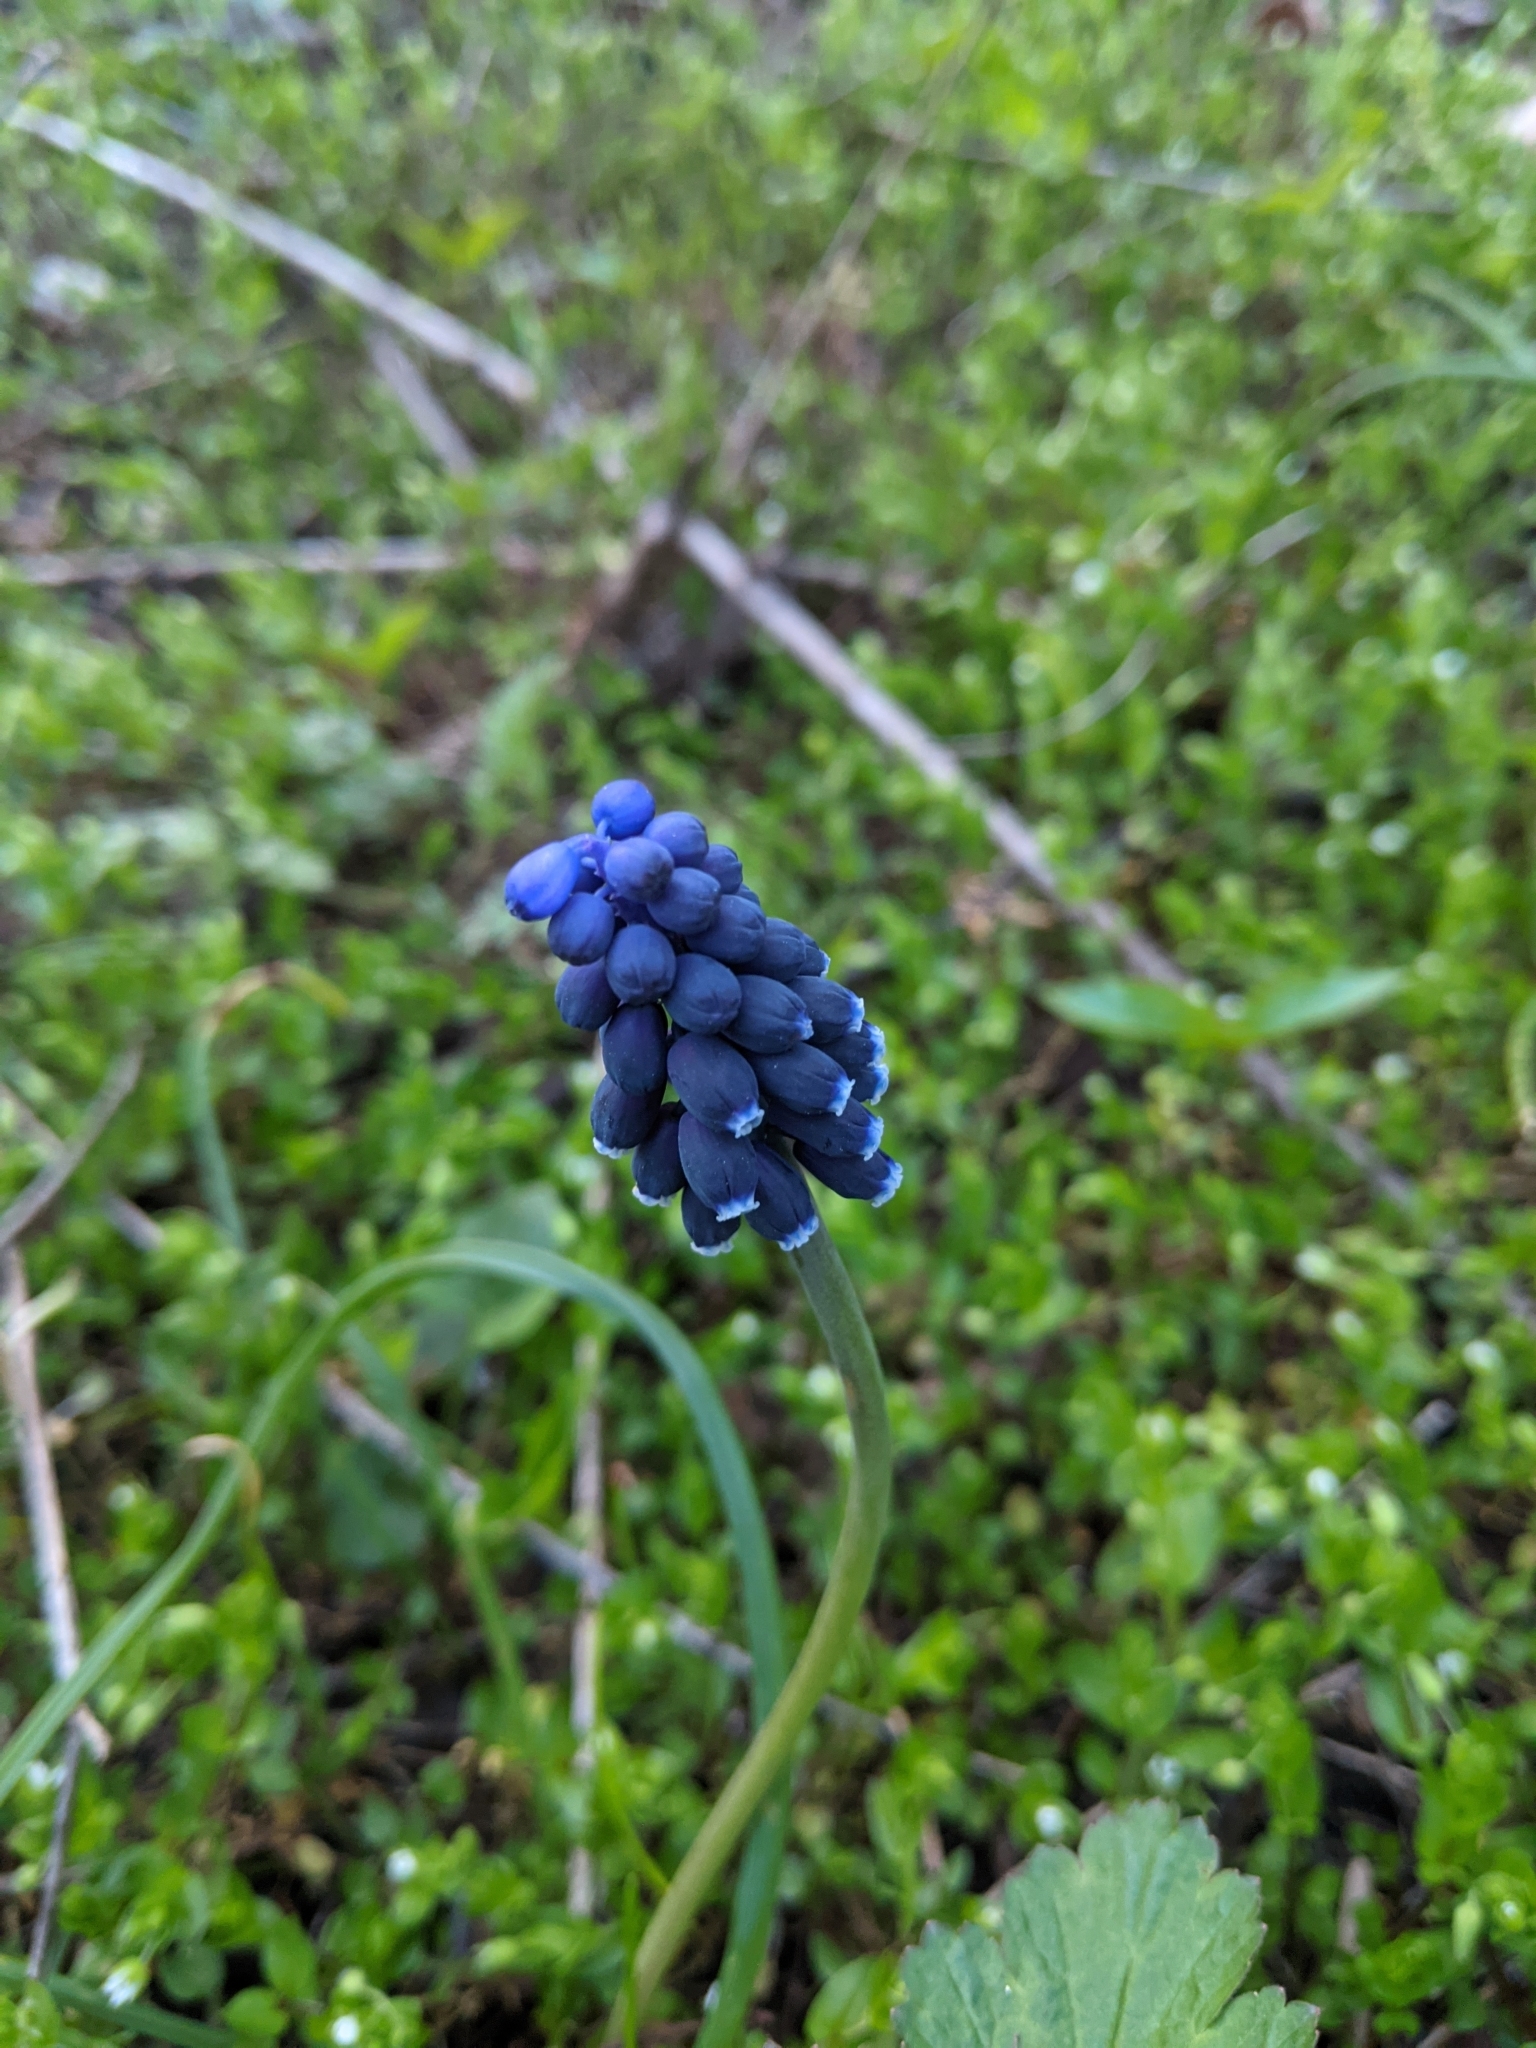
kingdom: Plantae
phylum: Tracheophyta
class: Liliopsida
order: Asparagales
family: Asparagaceae
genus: Muscari
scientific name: Muscari neglectum
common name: Grape-hyacinth
